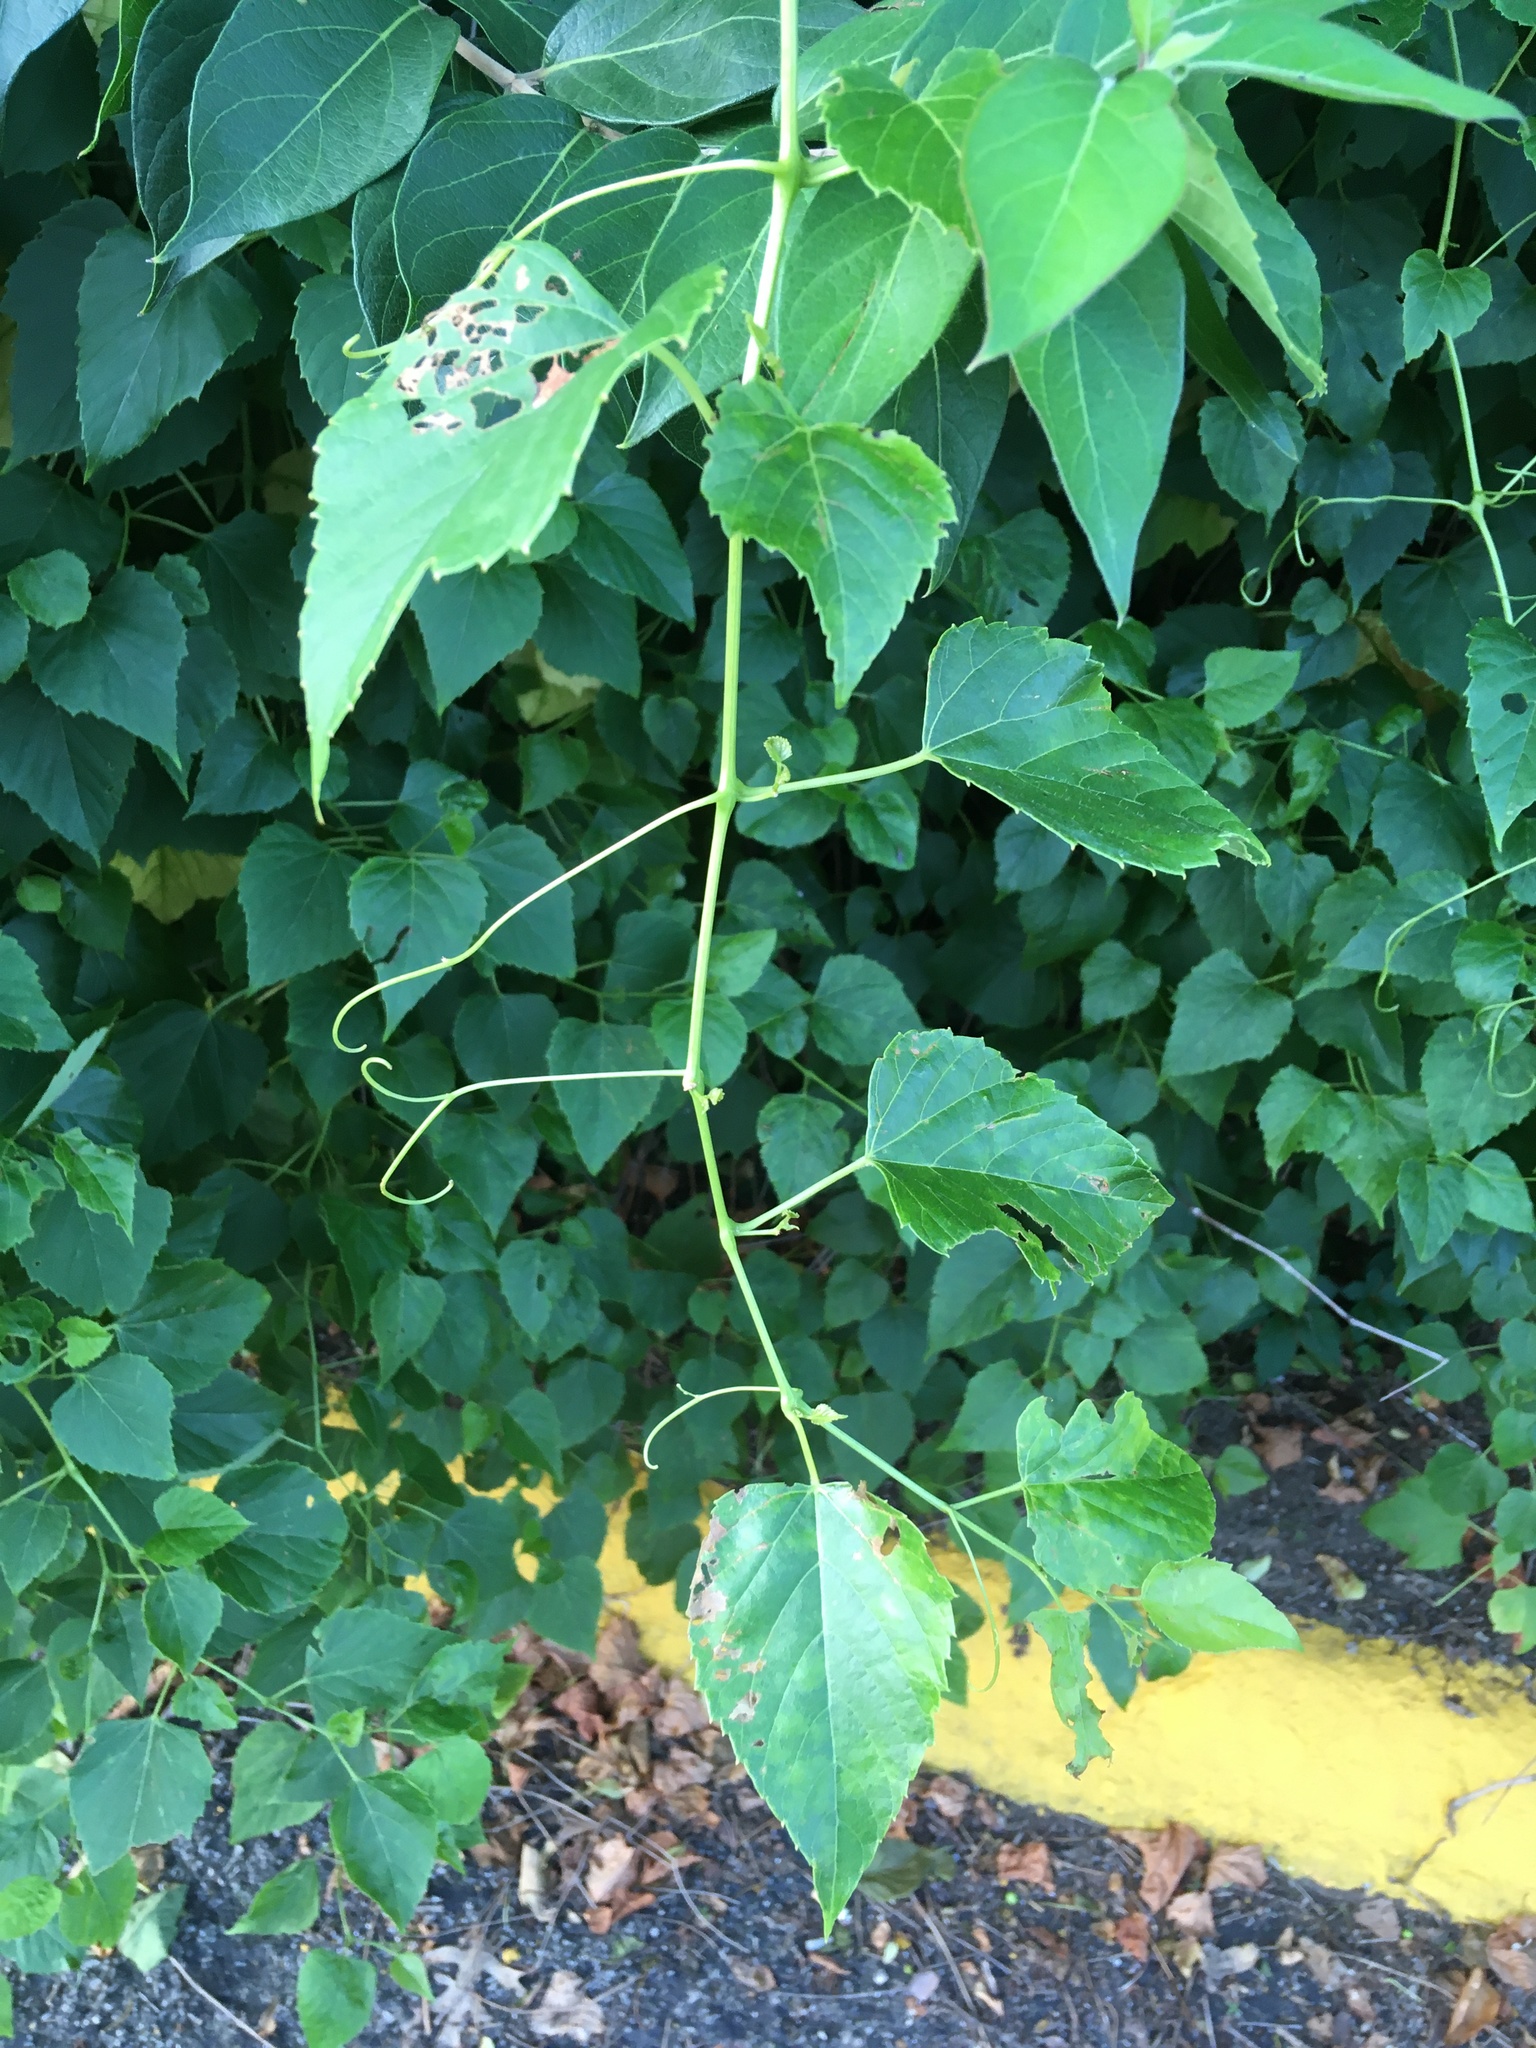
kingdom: Plantae
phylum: Tracheophyta
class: Magnoliopsida
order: Vitales
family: Vitaceae
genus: Ampelopsis
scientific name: Ampelopsis cordata
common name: Heart-leaf ampelopsis
